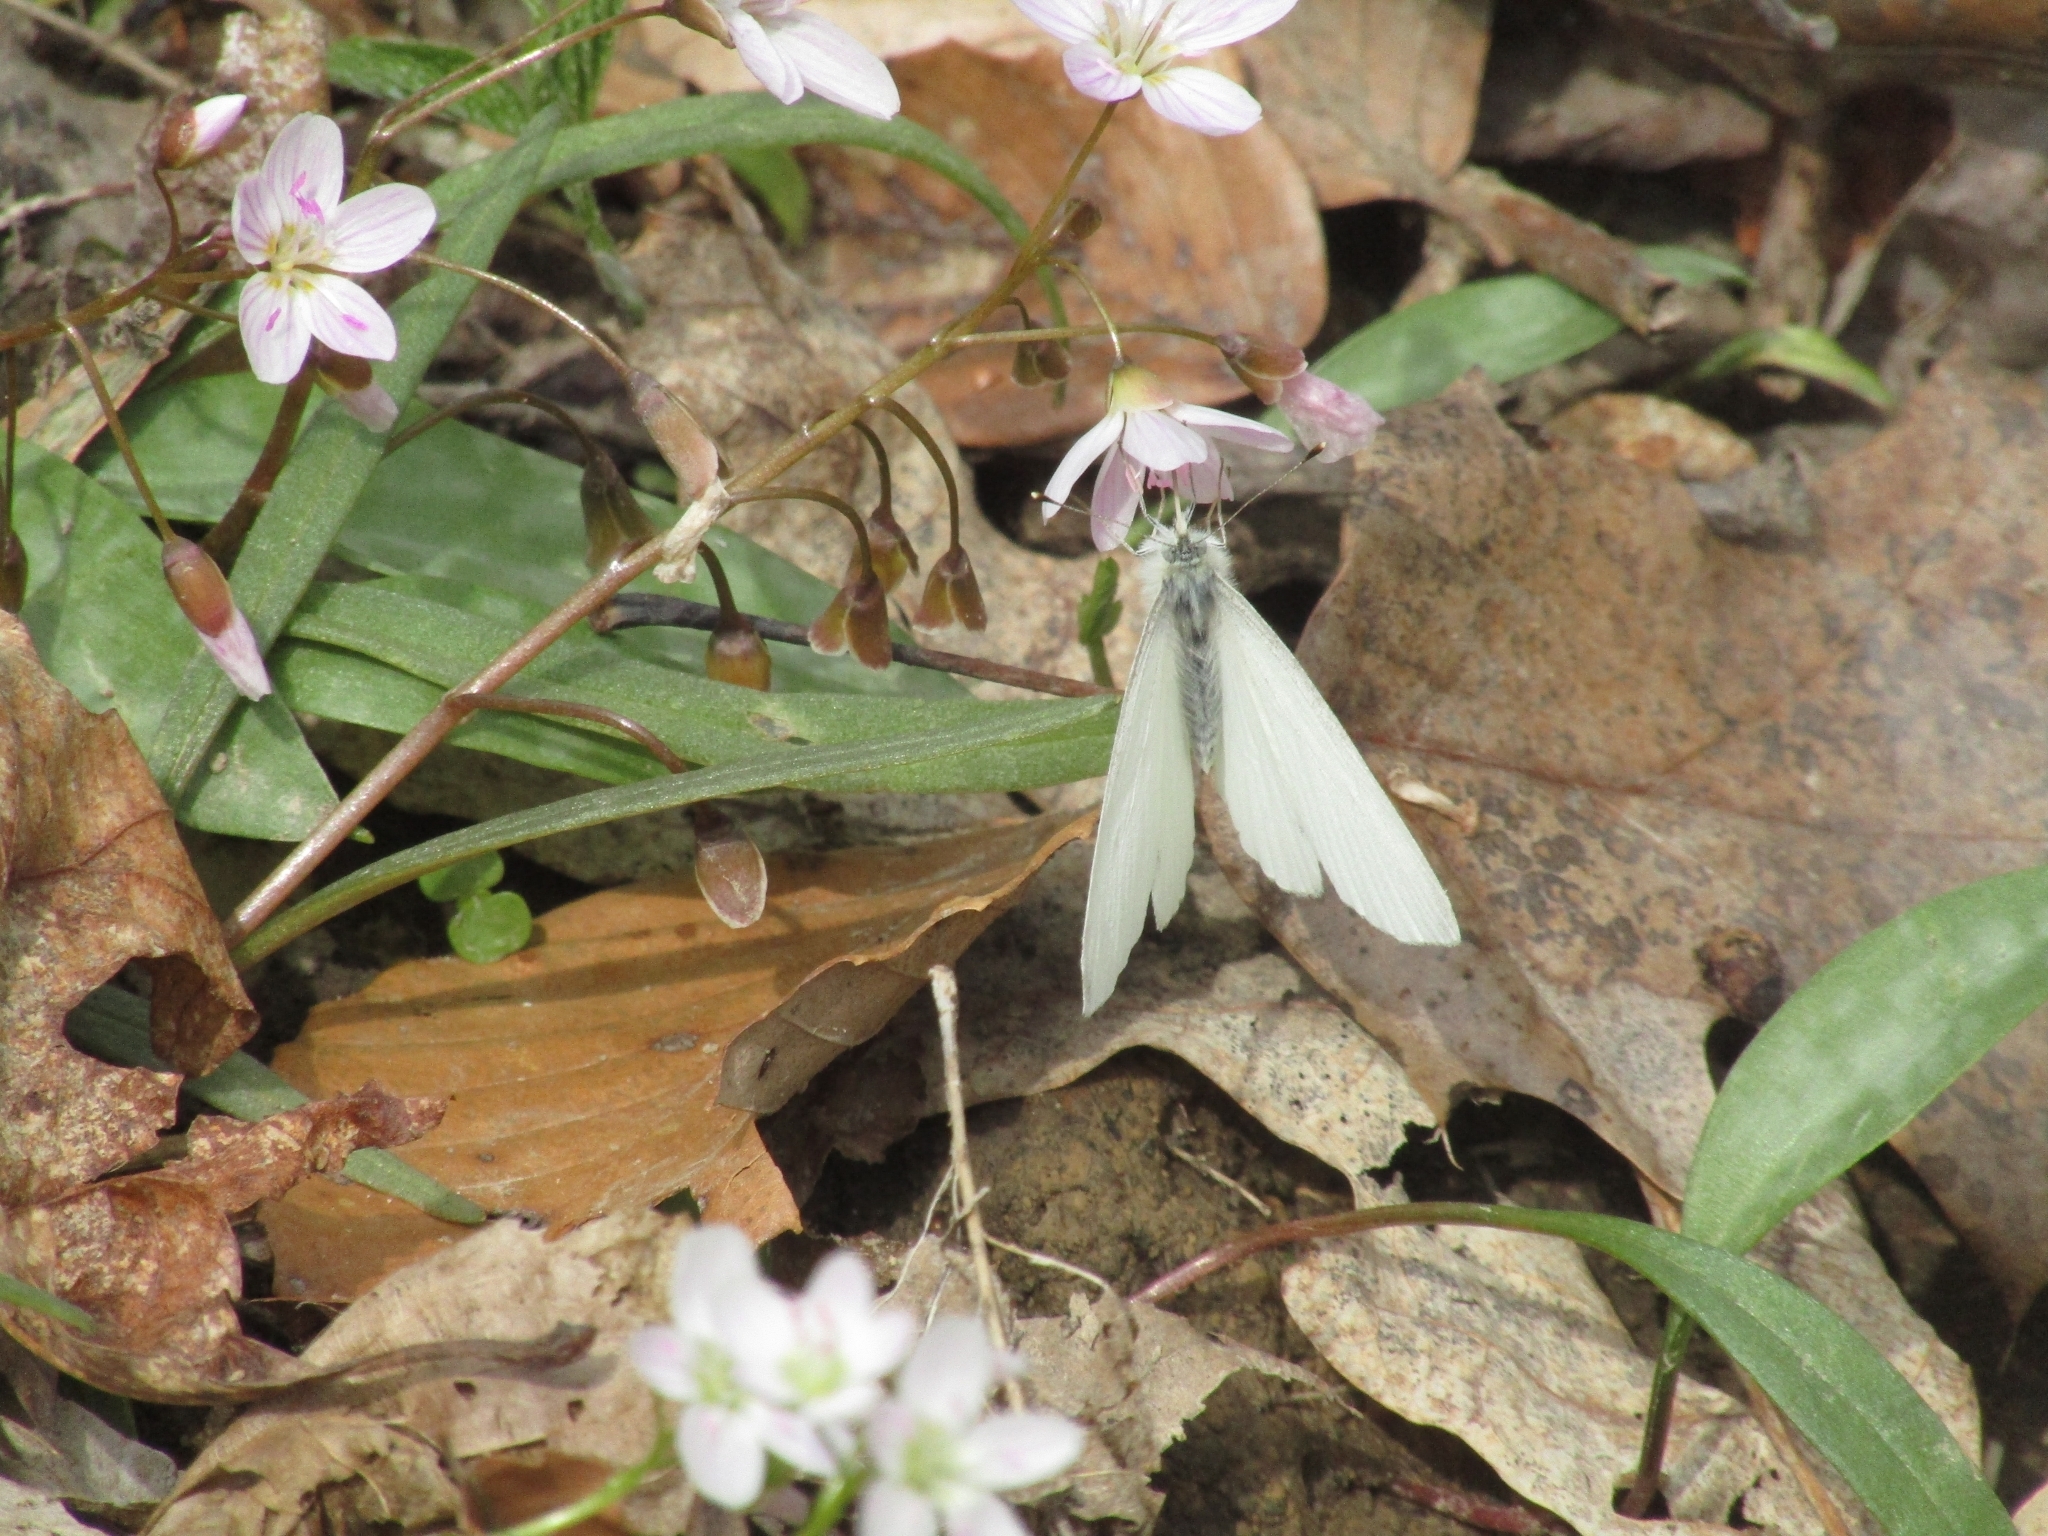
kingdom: Animalia
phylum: Arthropoda
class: Insecta
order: Lepidoptera
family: Pieridae
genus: Pieris
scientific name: Pieris virginiensis
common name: West virginia white
